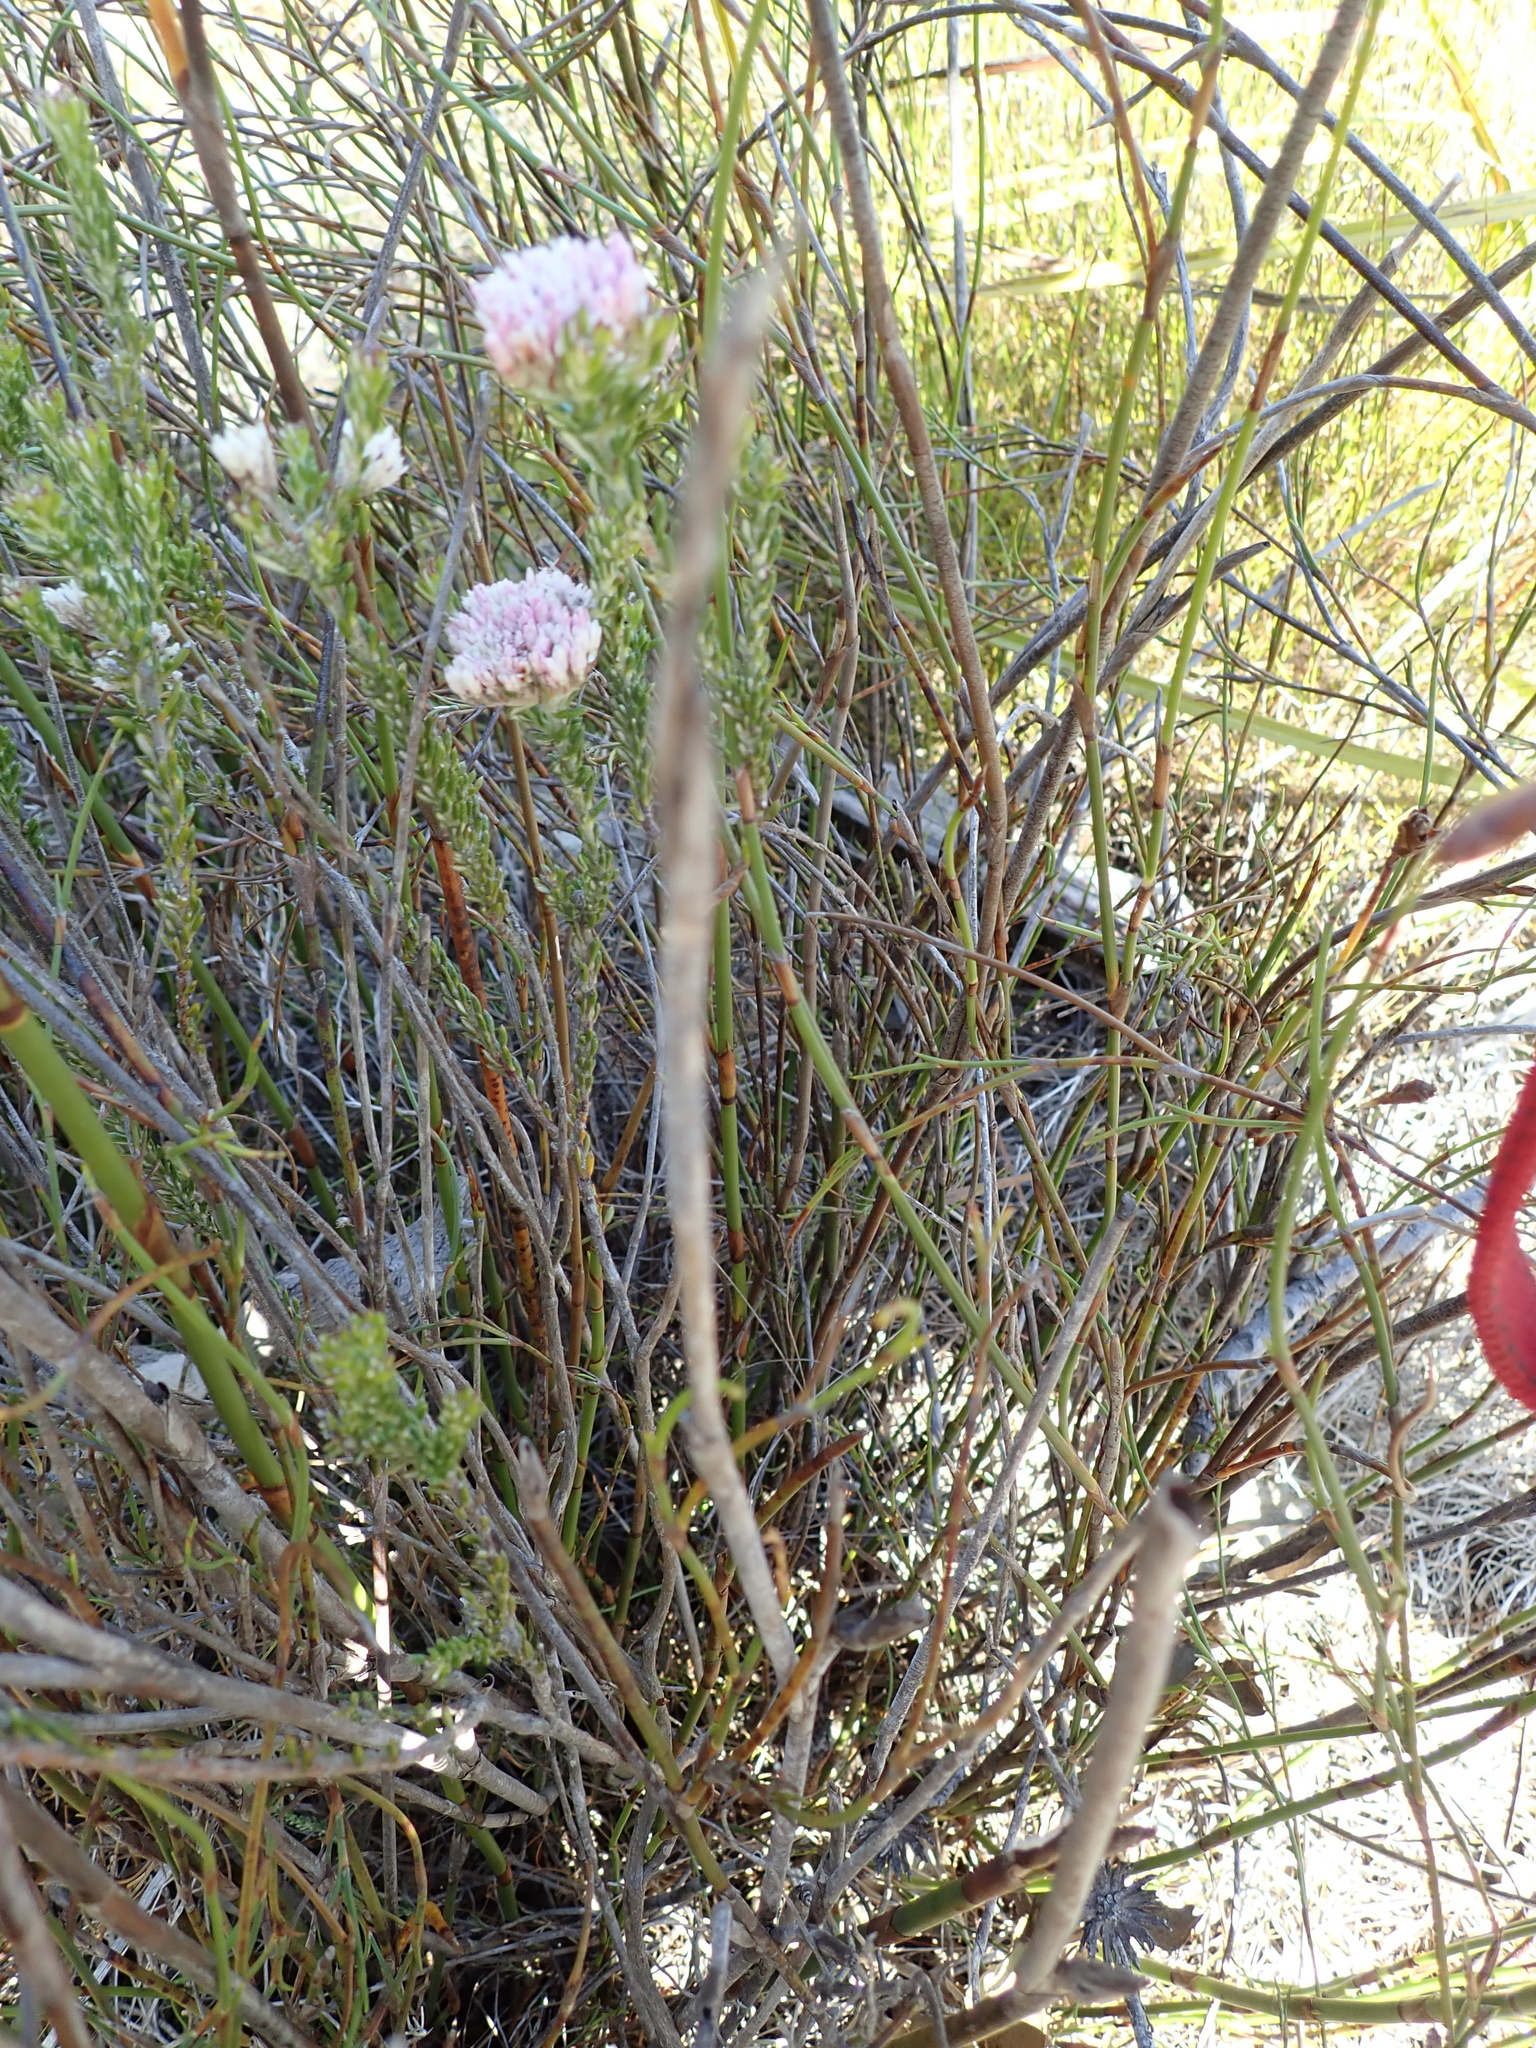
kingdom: Plantae
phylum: Tracheophyta
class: Magnoliopsida
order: Asterales
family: Asteraceae
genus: Metalasia
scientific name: Metalasia erubescens
